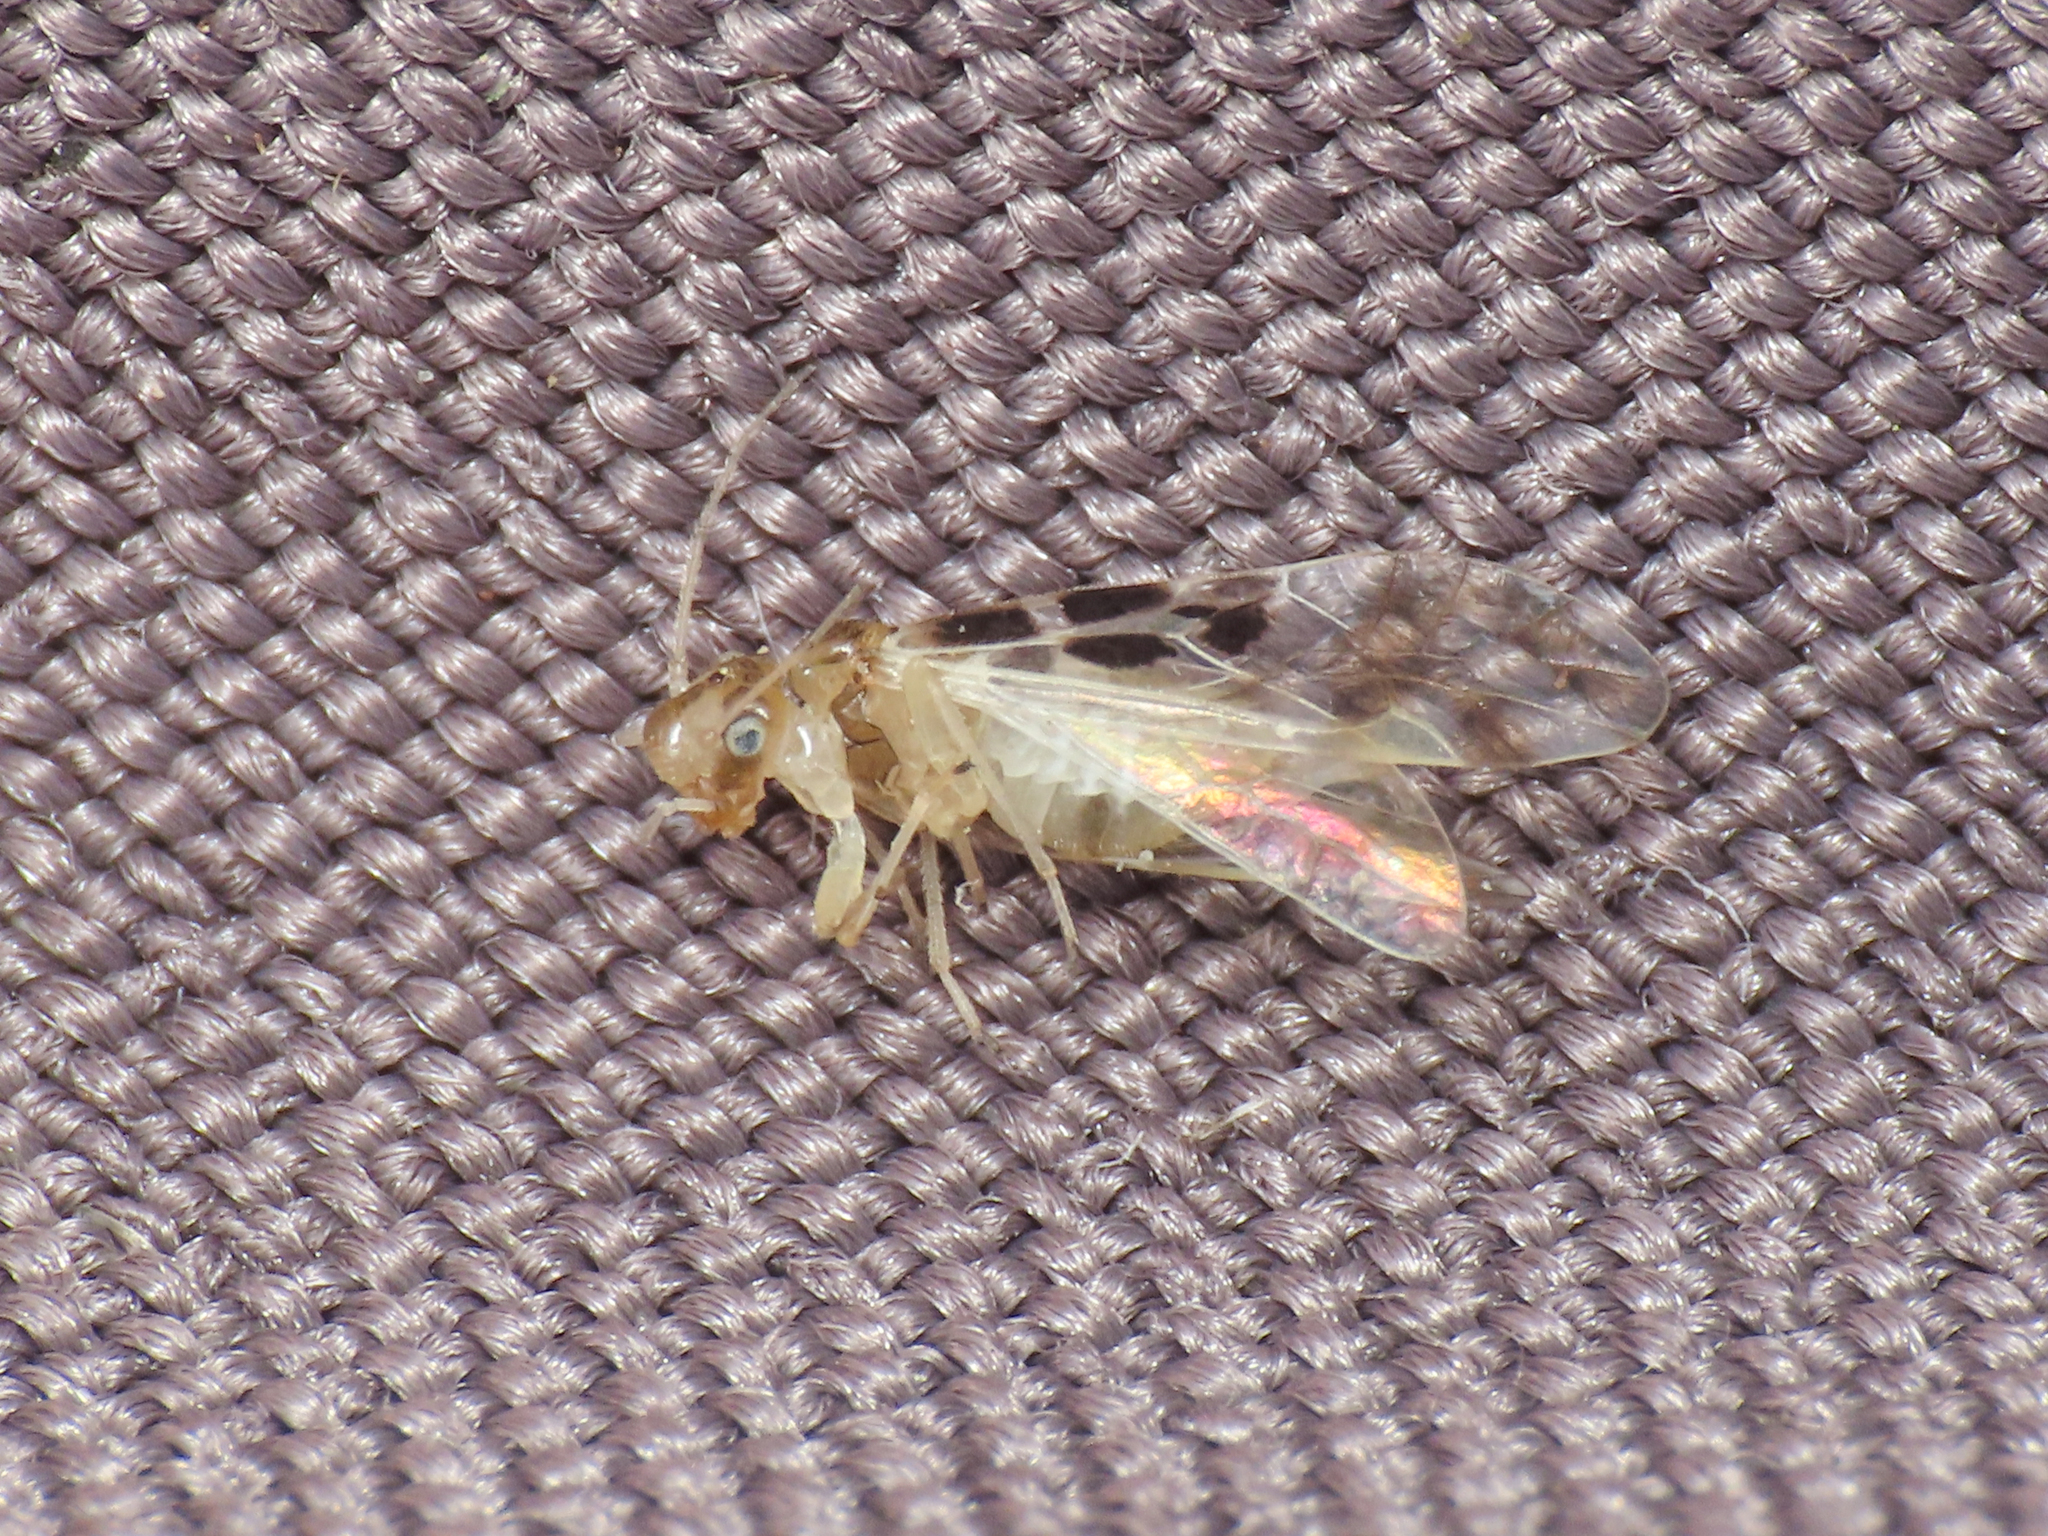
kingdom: Animalia
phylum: Arthropoda
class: Insecta
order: Psocodea
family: Stenopsocidae
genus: Graphopsocus
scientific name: Graphopsocus cruciatus
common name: Lizard bark louse
